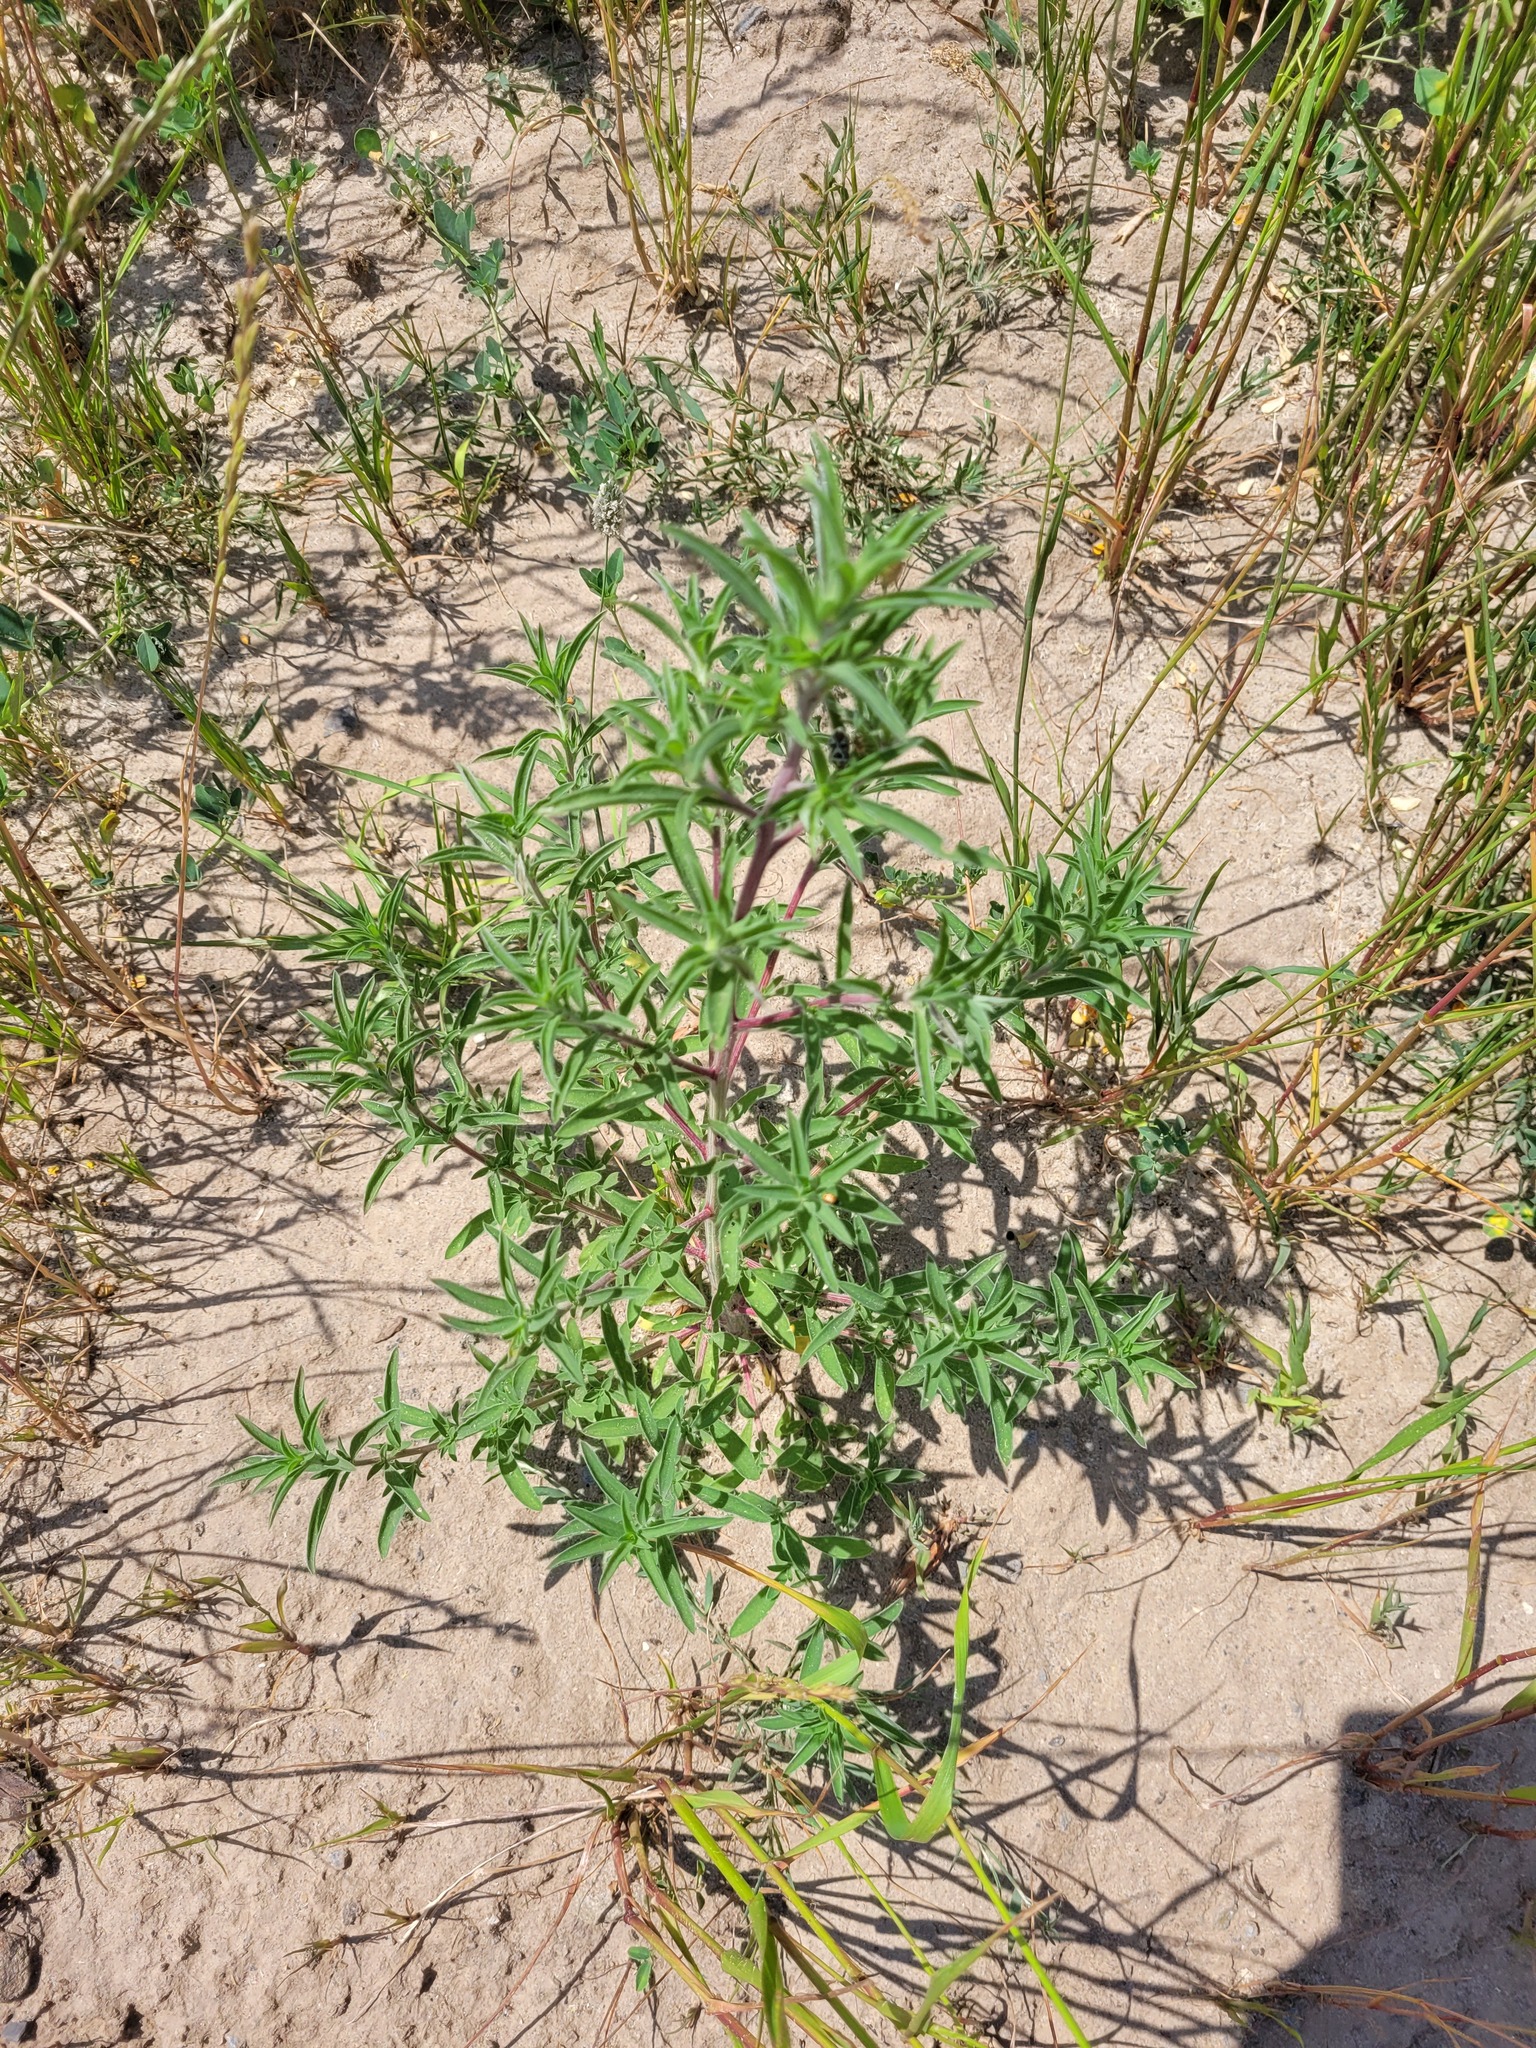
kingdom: Plantae
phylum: Tracheophyta
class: Magnoliopsida
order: Caryophyllales
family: Amaranthaceae
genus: Bassia
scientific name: Bassia scoparia
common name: Belvedere
